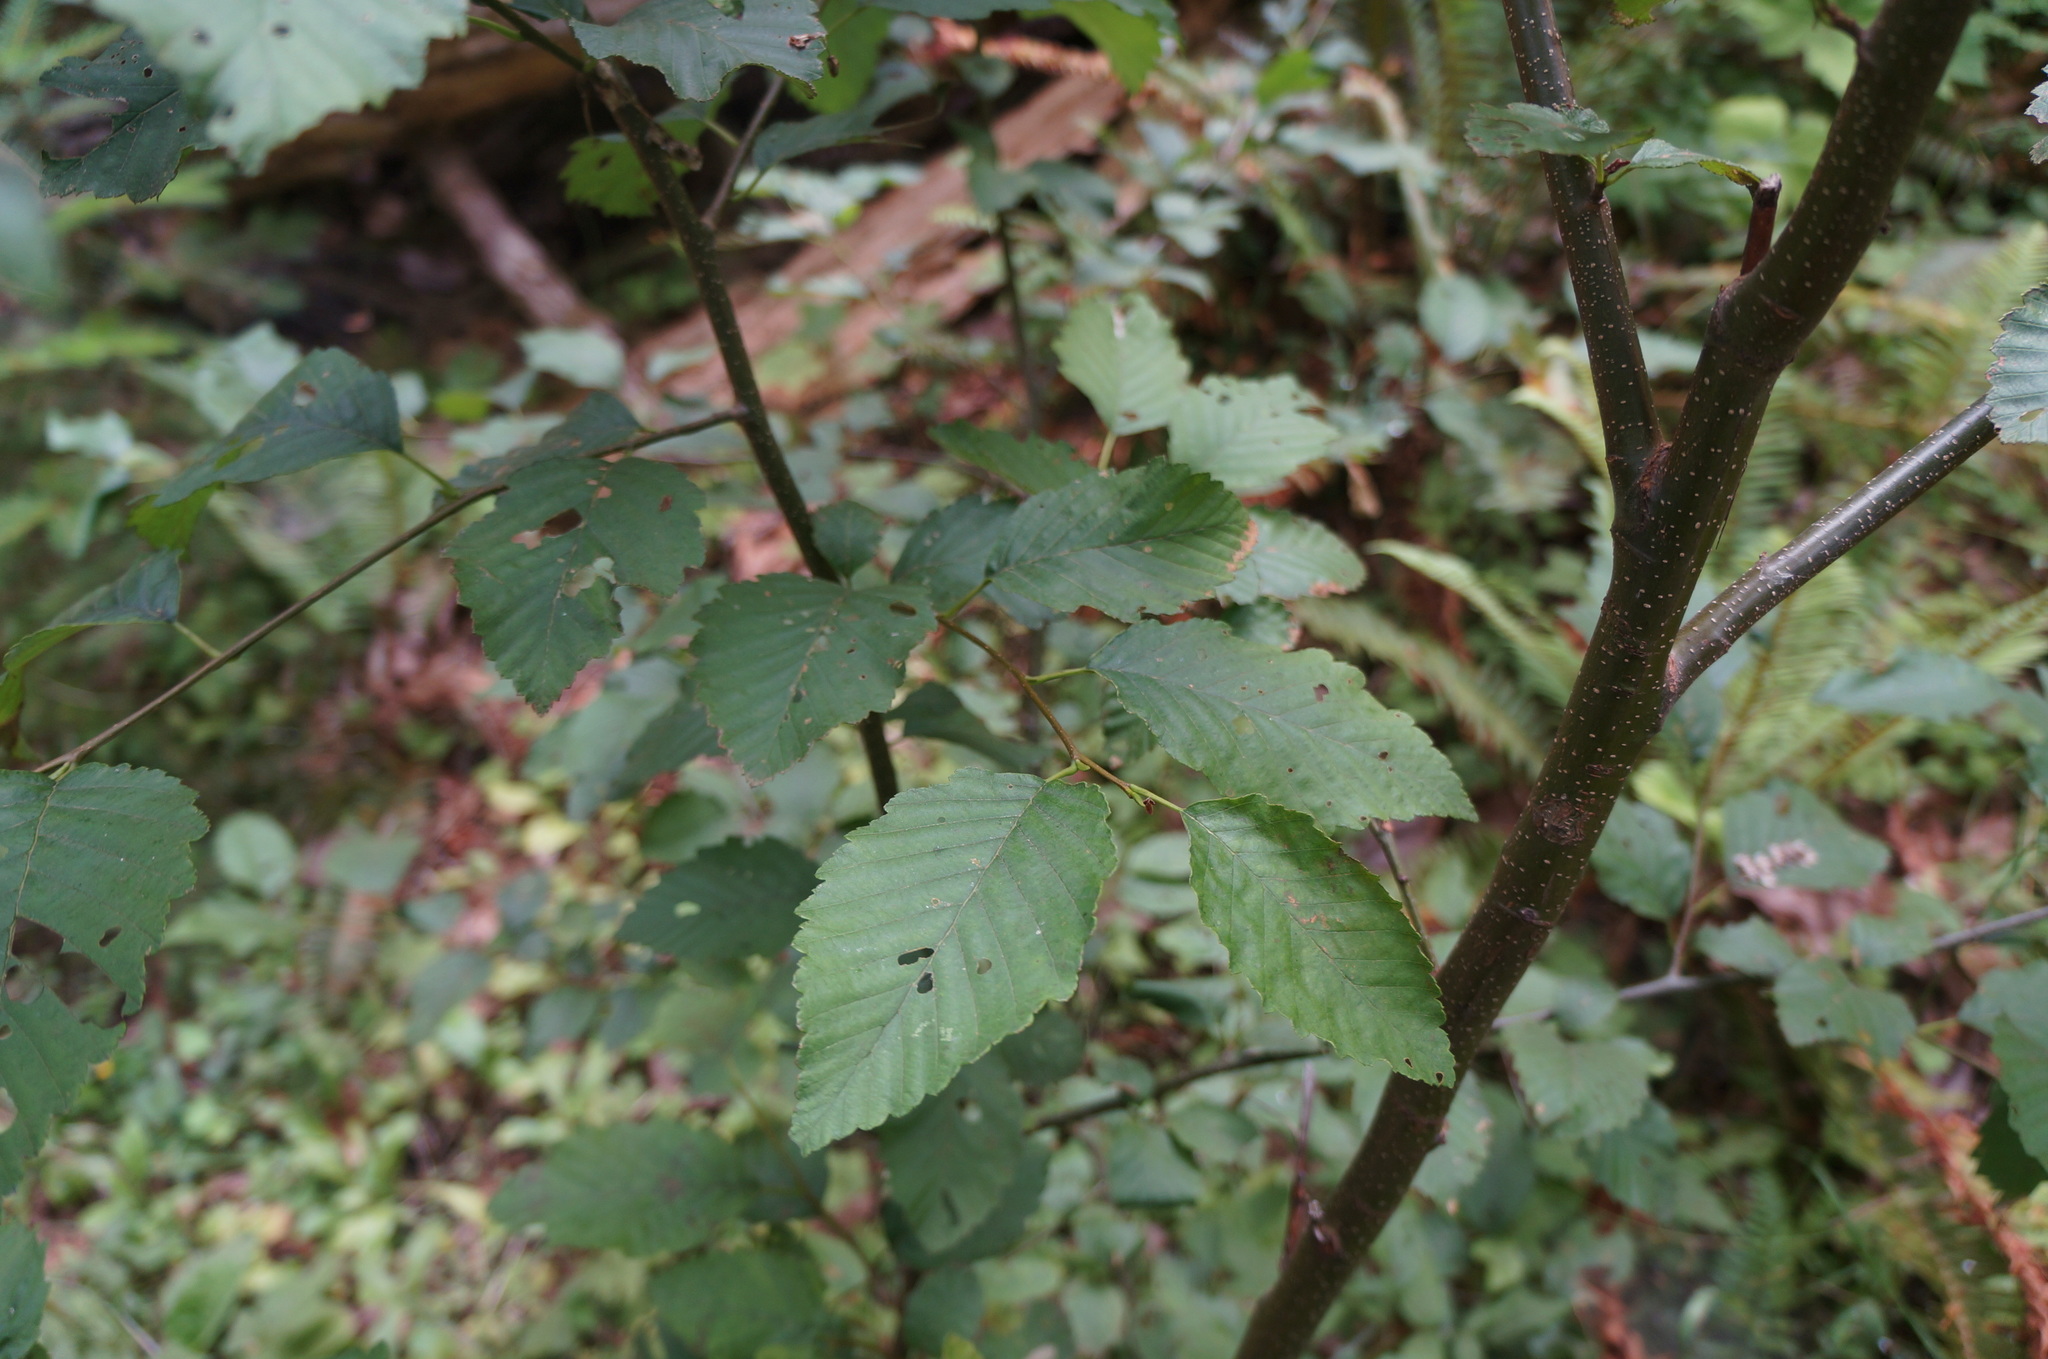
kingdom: Plantae
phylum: Tracheophyta
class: Magnoliopsida
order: Fagales
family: Betulaceae
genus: Alnus
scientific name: Alnus rubra
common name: Red alder
